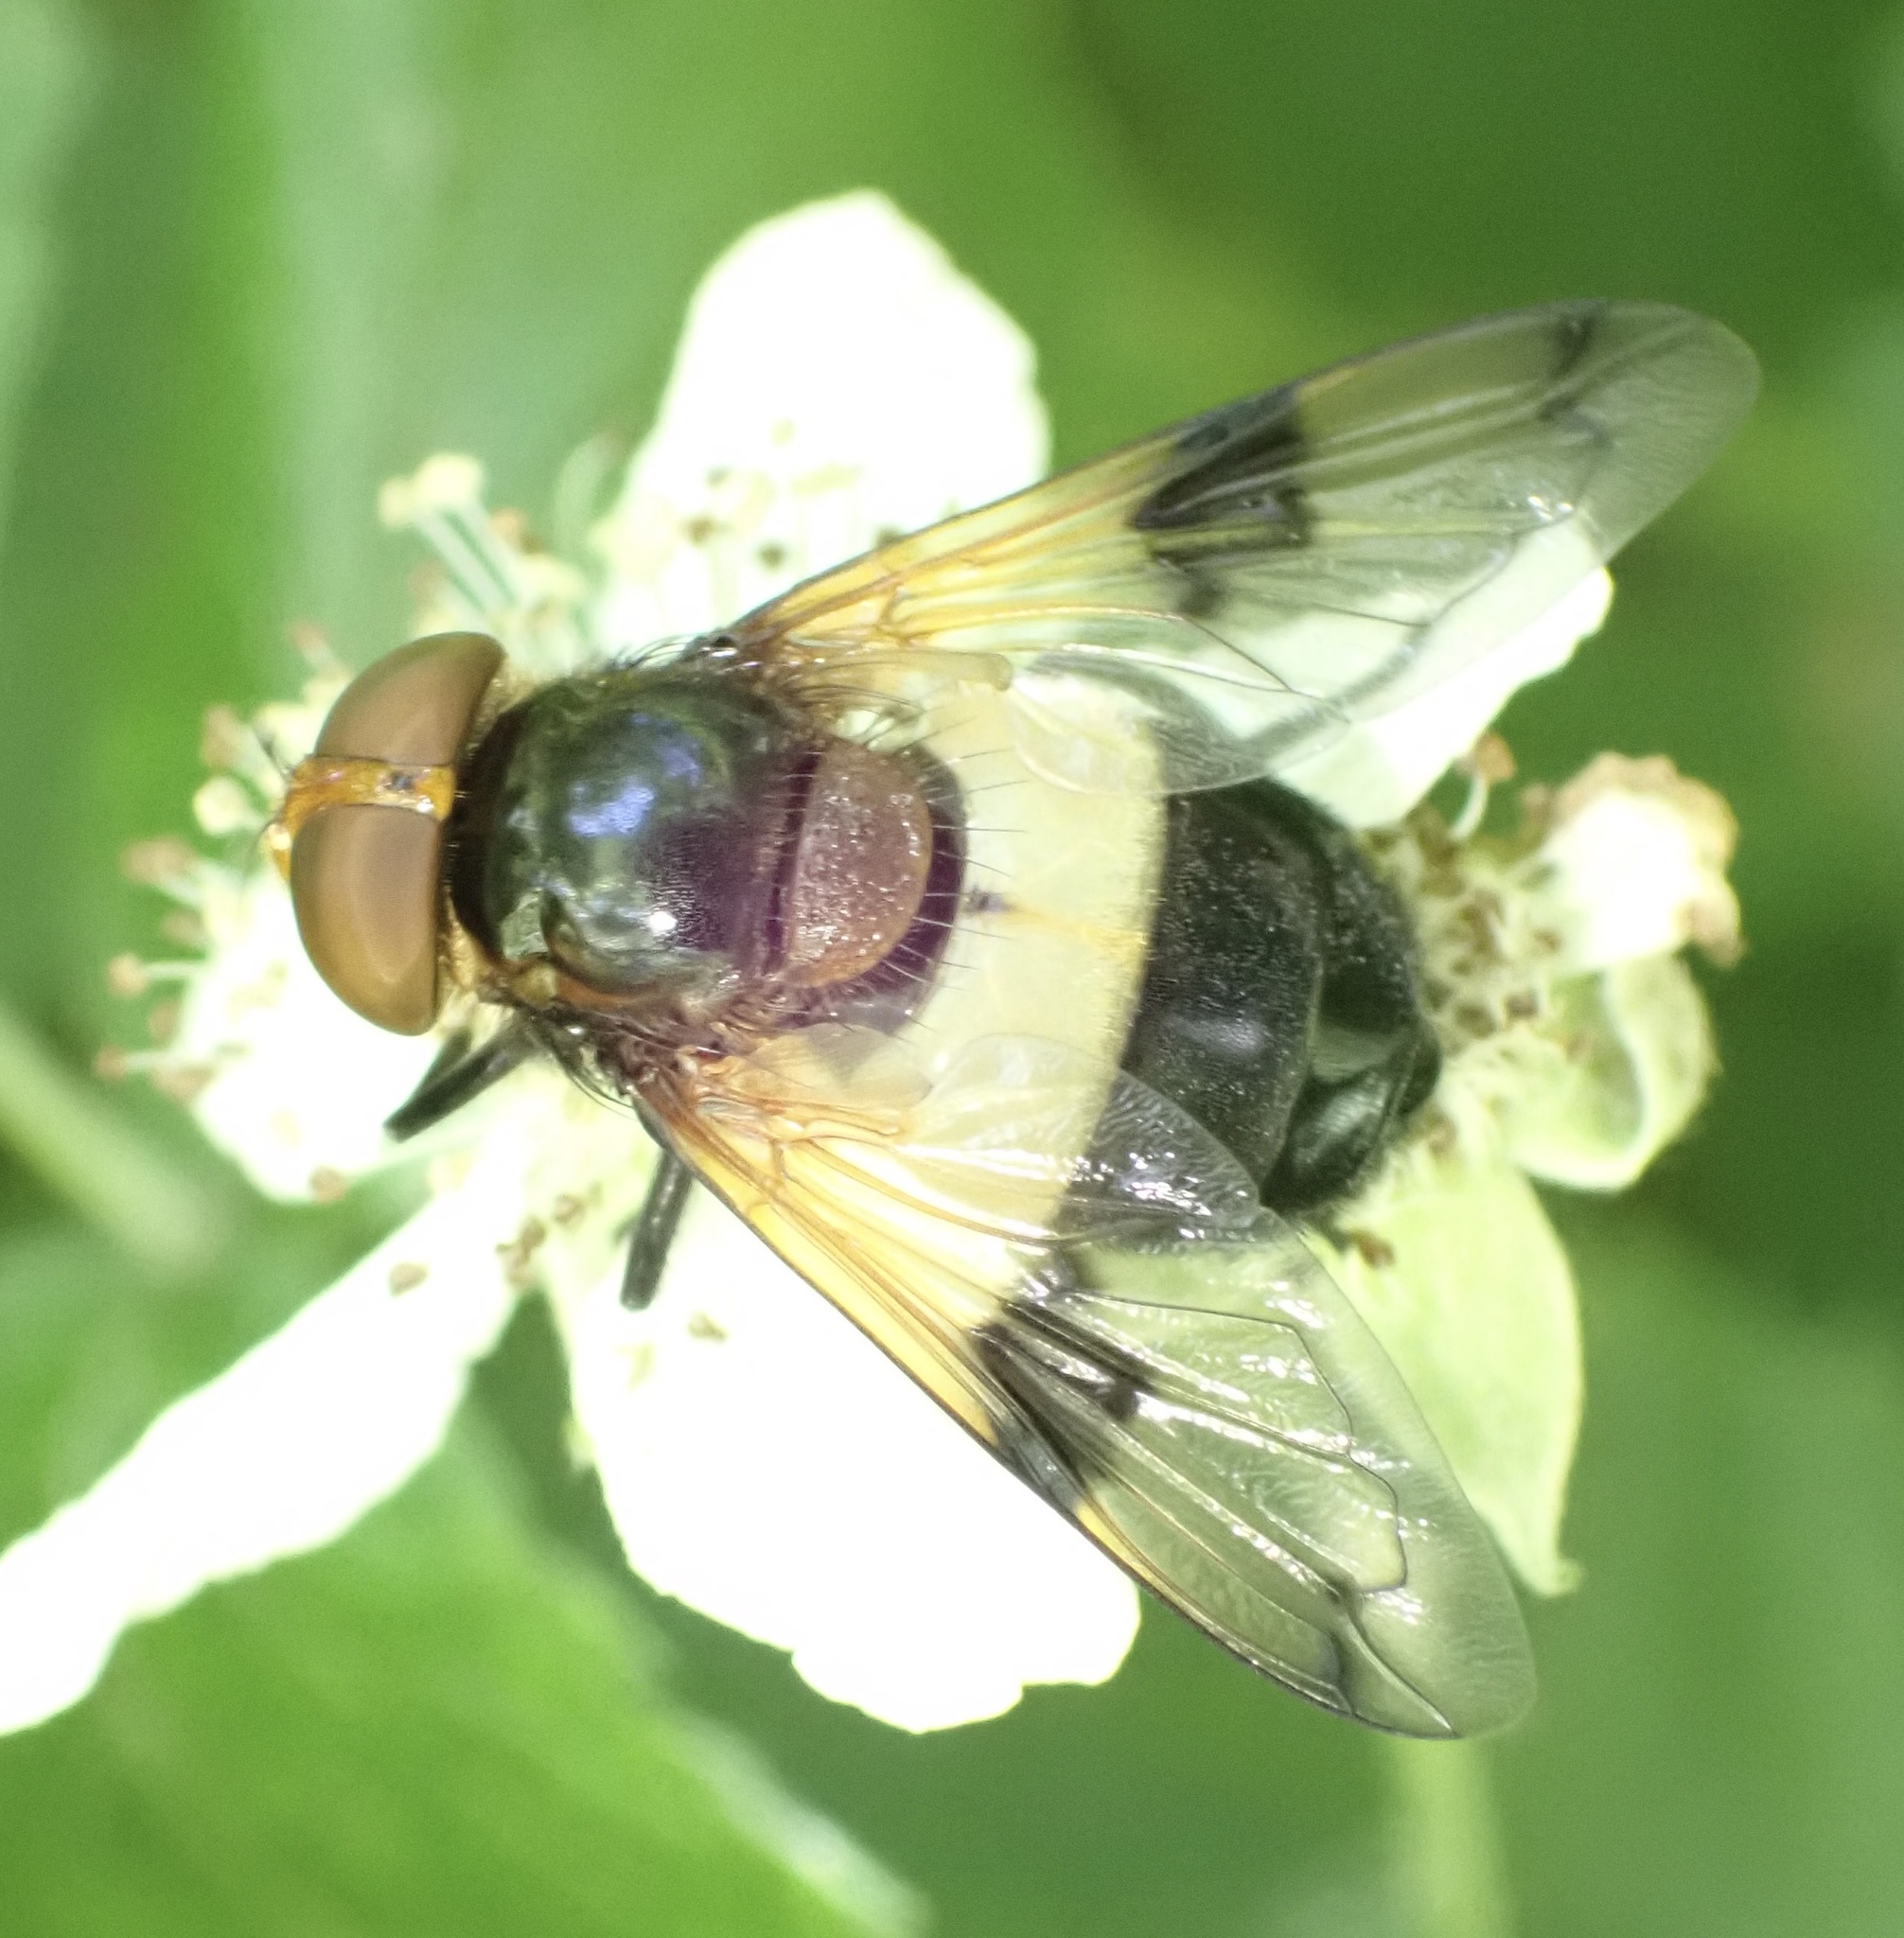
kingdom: Animalia
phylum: Arthropoda
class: Insecta
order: Diptera
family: Syrphidae
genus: Volucella
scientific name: Volucella pellucens
